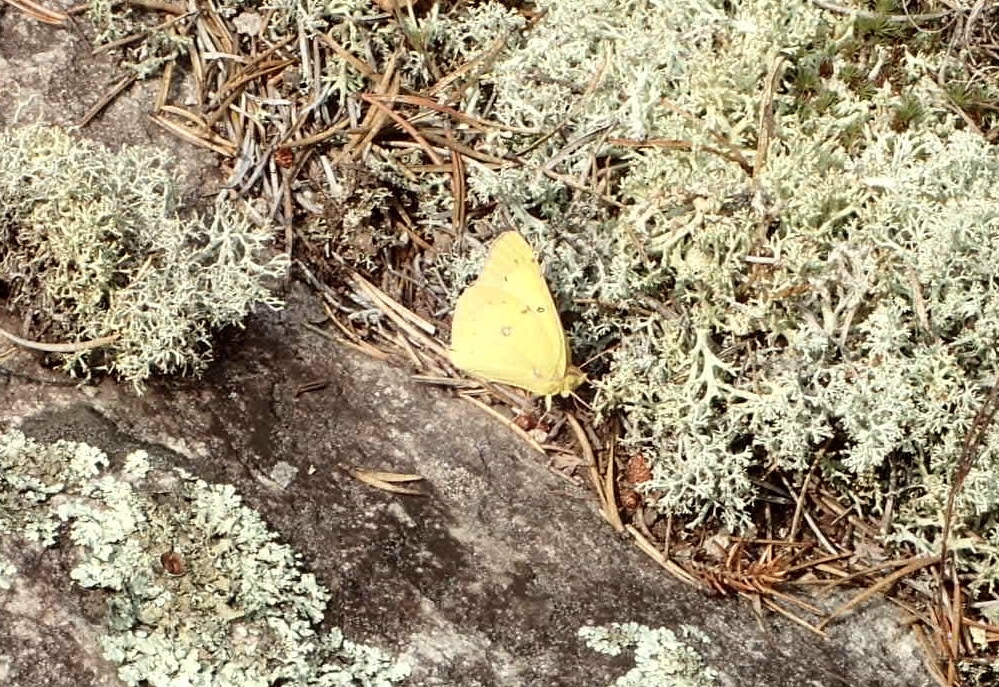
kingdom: Animalia
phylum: Arthropoda
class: Insecta
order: Lepidoptera
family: Pieridae
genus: Colias
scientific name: Colias philodice
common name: Clouded sulphur
